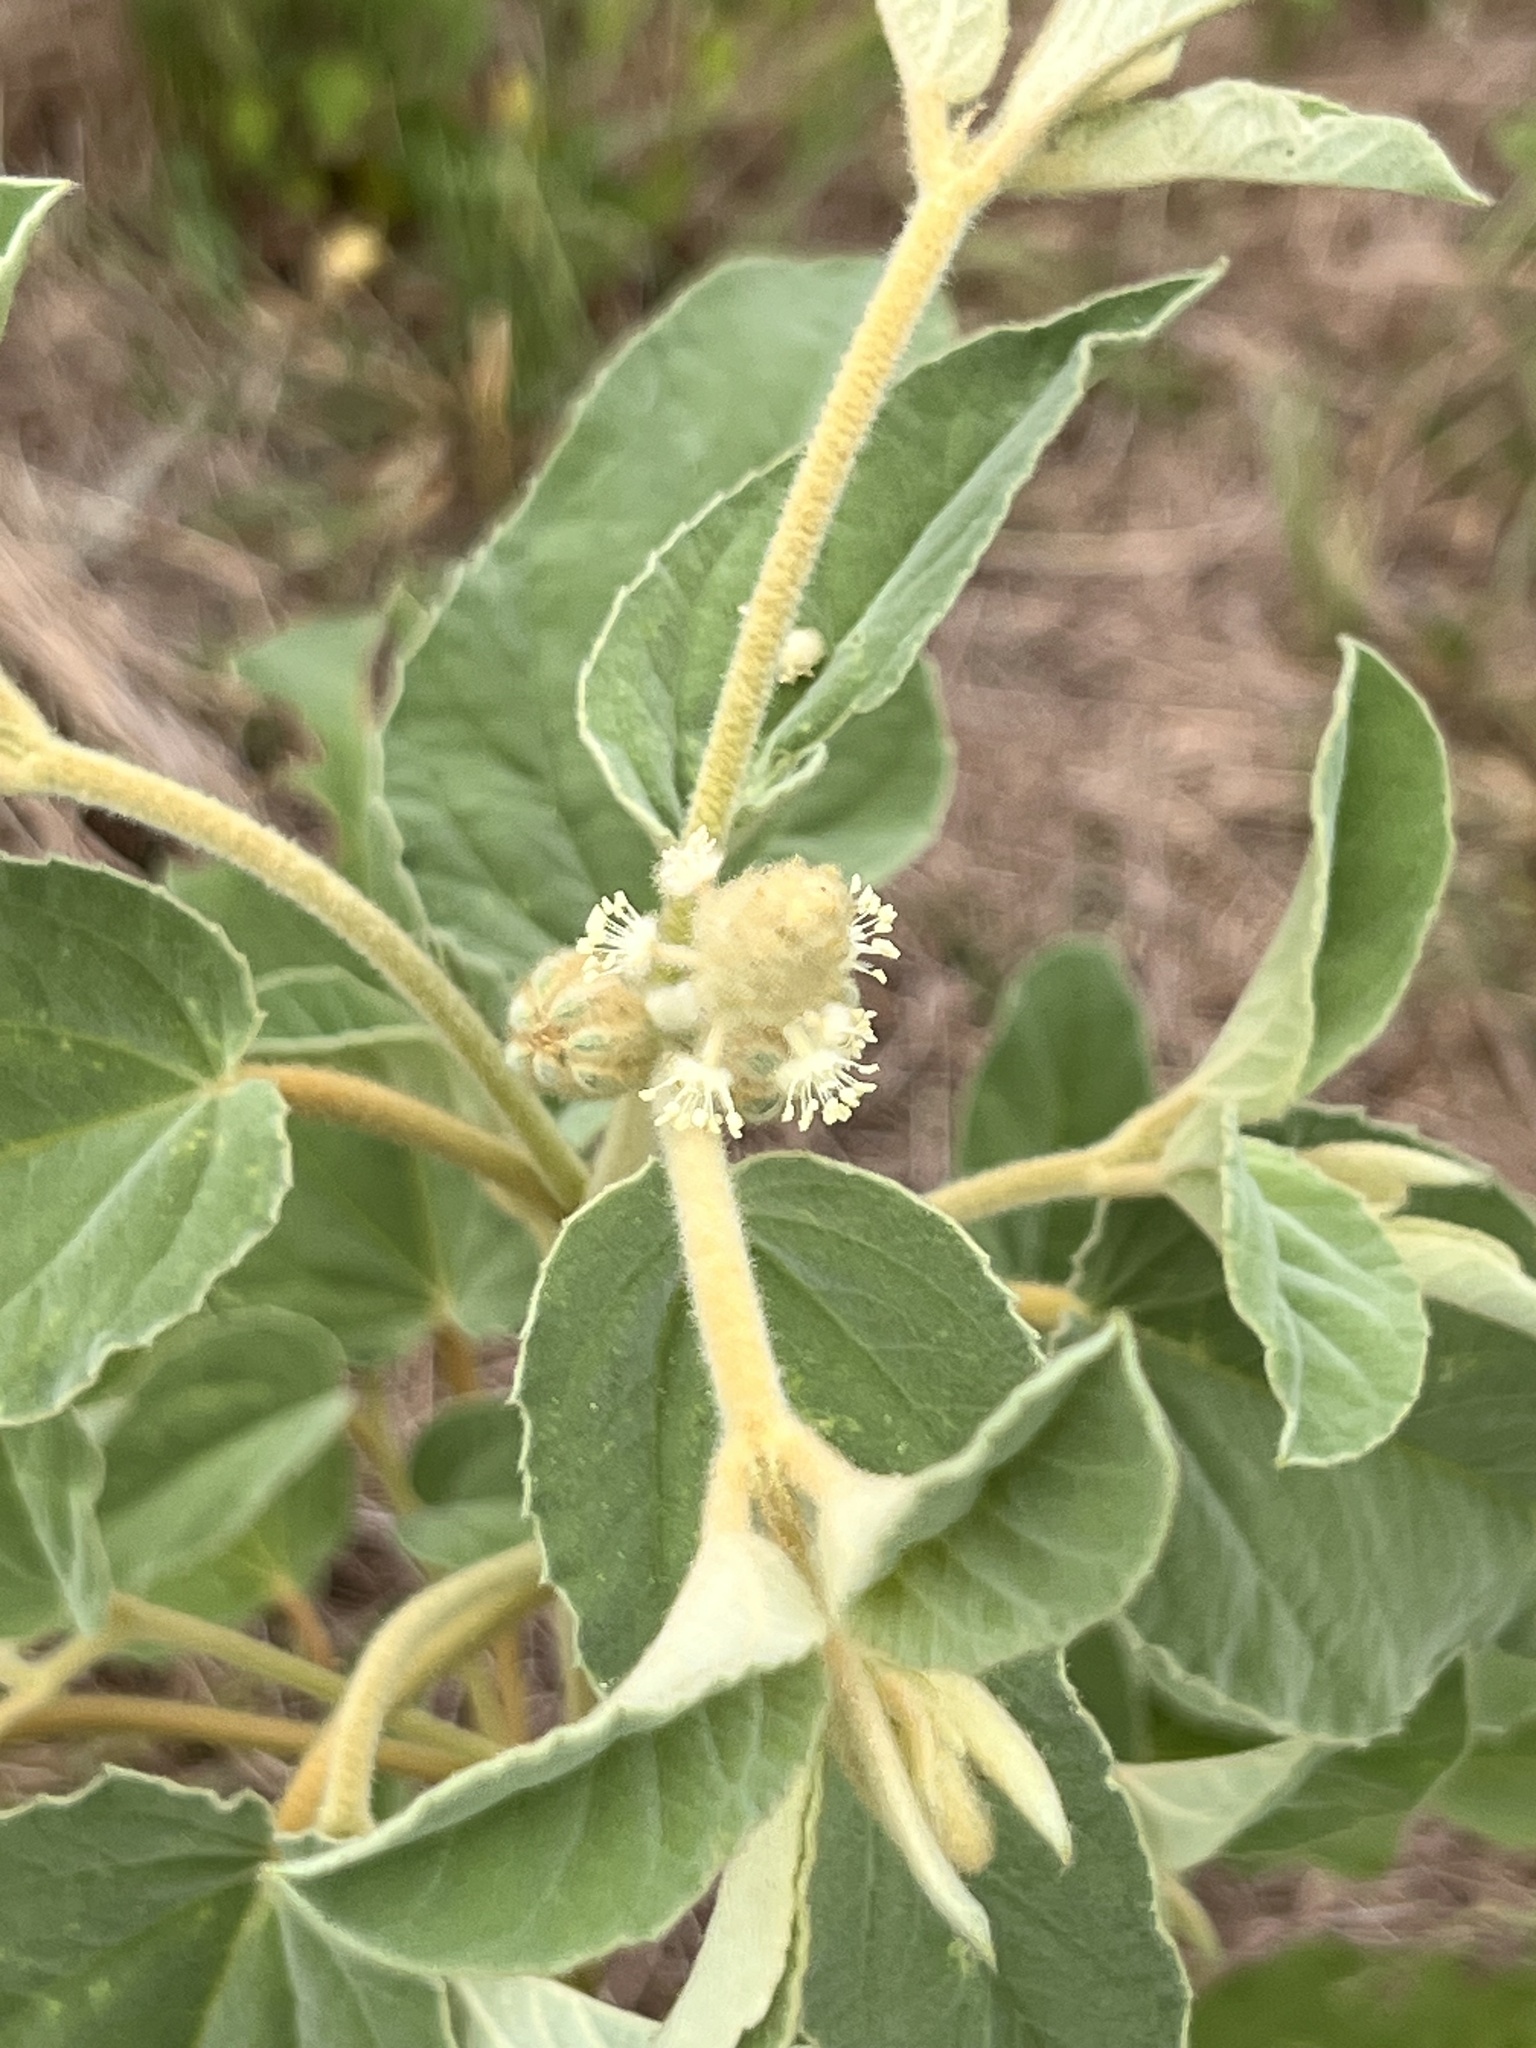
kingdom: Plantae
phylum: Tracheophyta
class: Magnoliopsida
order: Malpighiales
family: Euphorbiaceae
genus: Croton
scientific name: Croton lindheimeri
